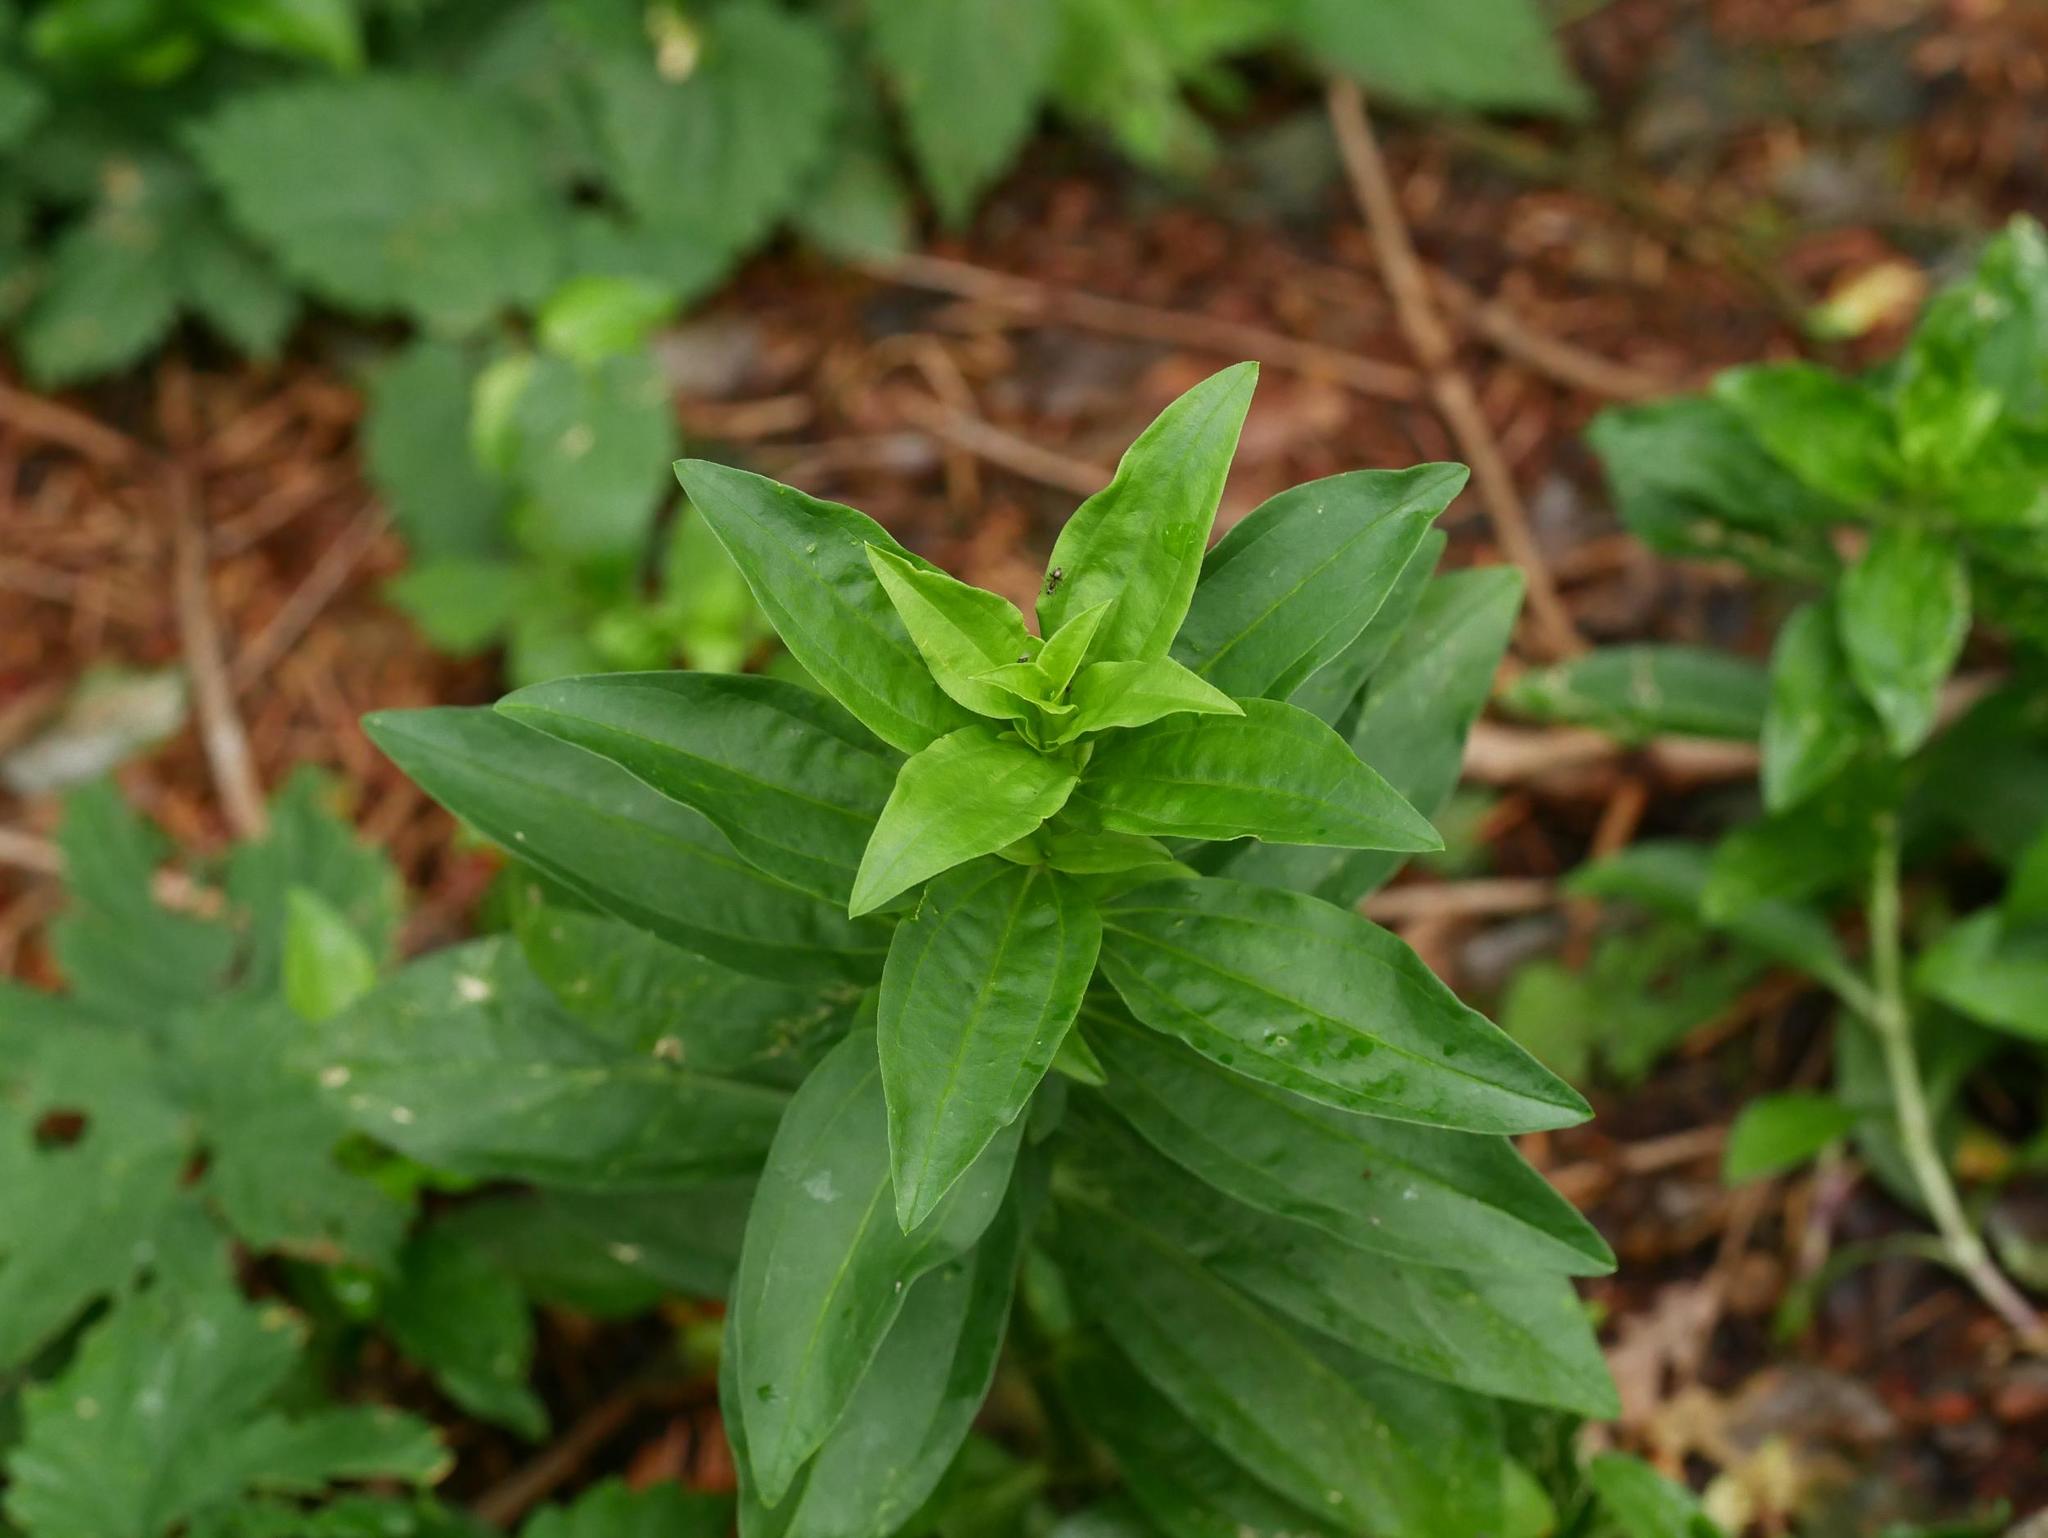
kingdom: Plantae
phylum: Tracheophyta
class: Magnoliopsida
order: Caryophyllales
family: Caryophyllaceae
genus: Saponaria
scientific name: Saponaria officinalis
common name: Soapwort
